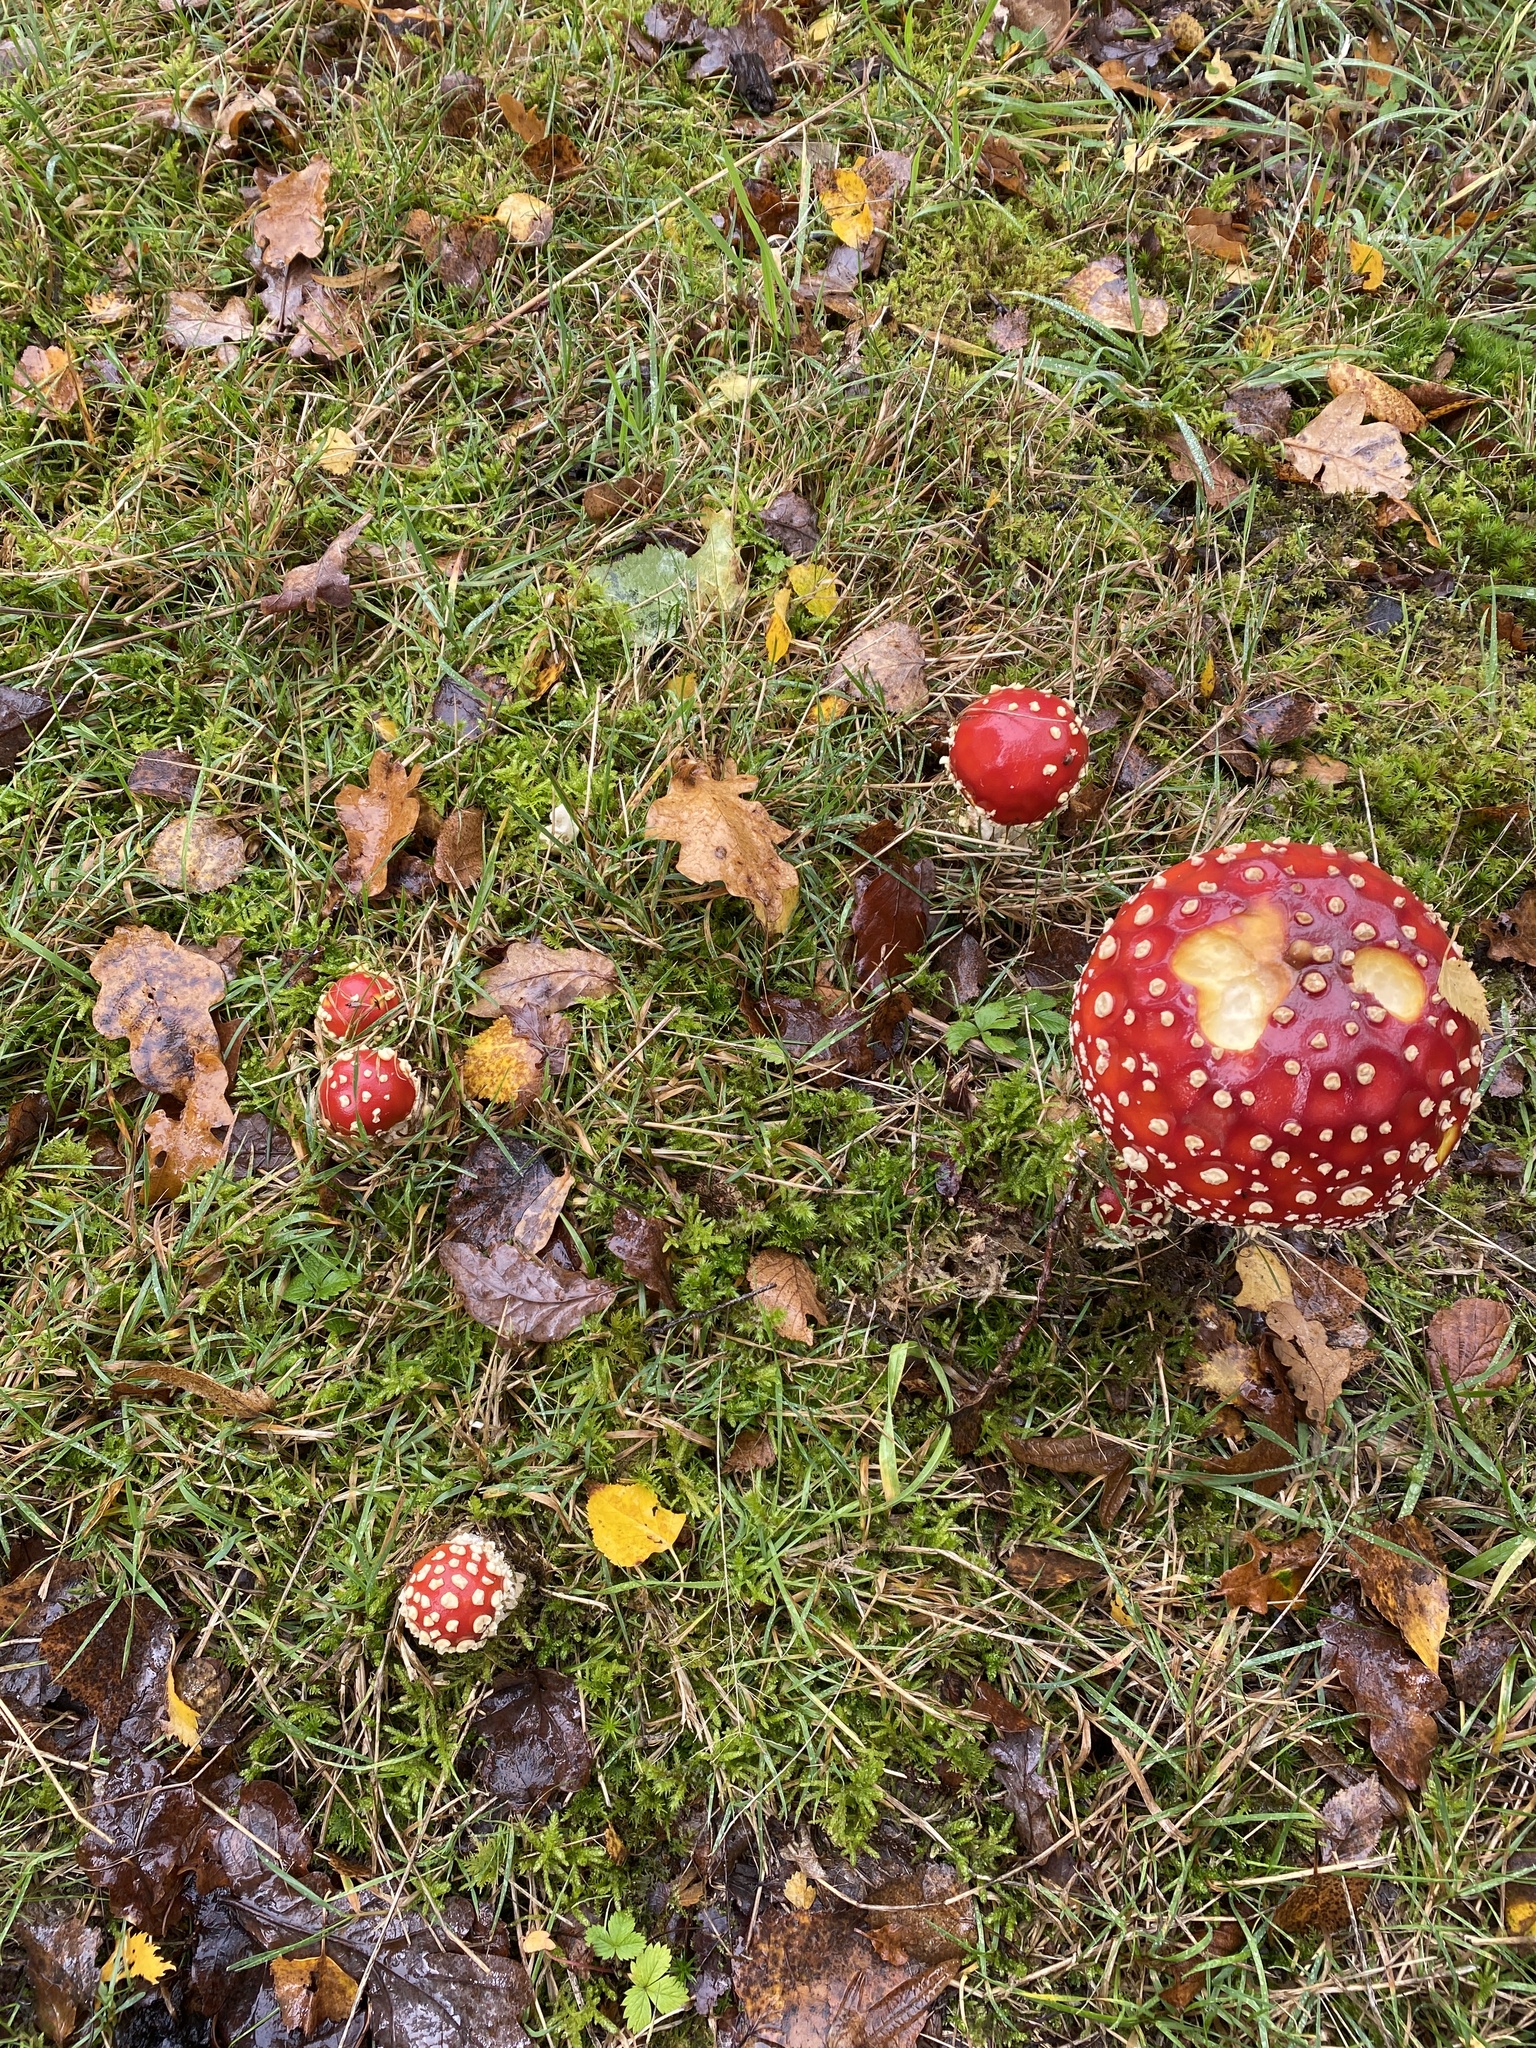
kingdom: Fungi
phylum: Basidiomycota
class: Agaricomycetes
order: Agaricales
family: Amanitaceae
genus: Amanita
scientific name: Amanita muscaria
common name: Fly agaric
